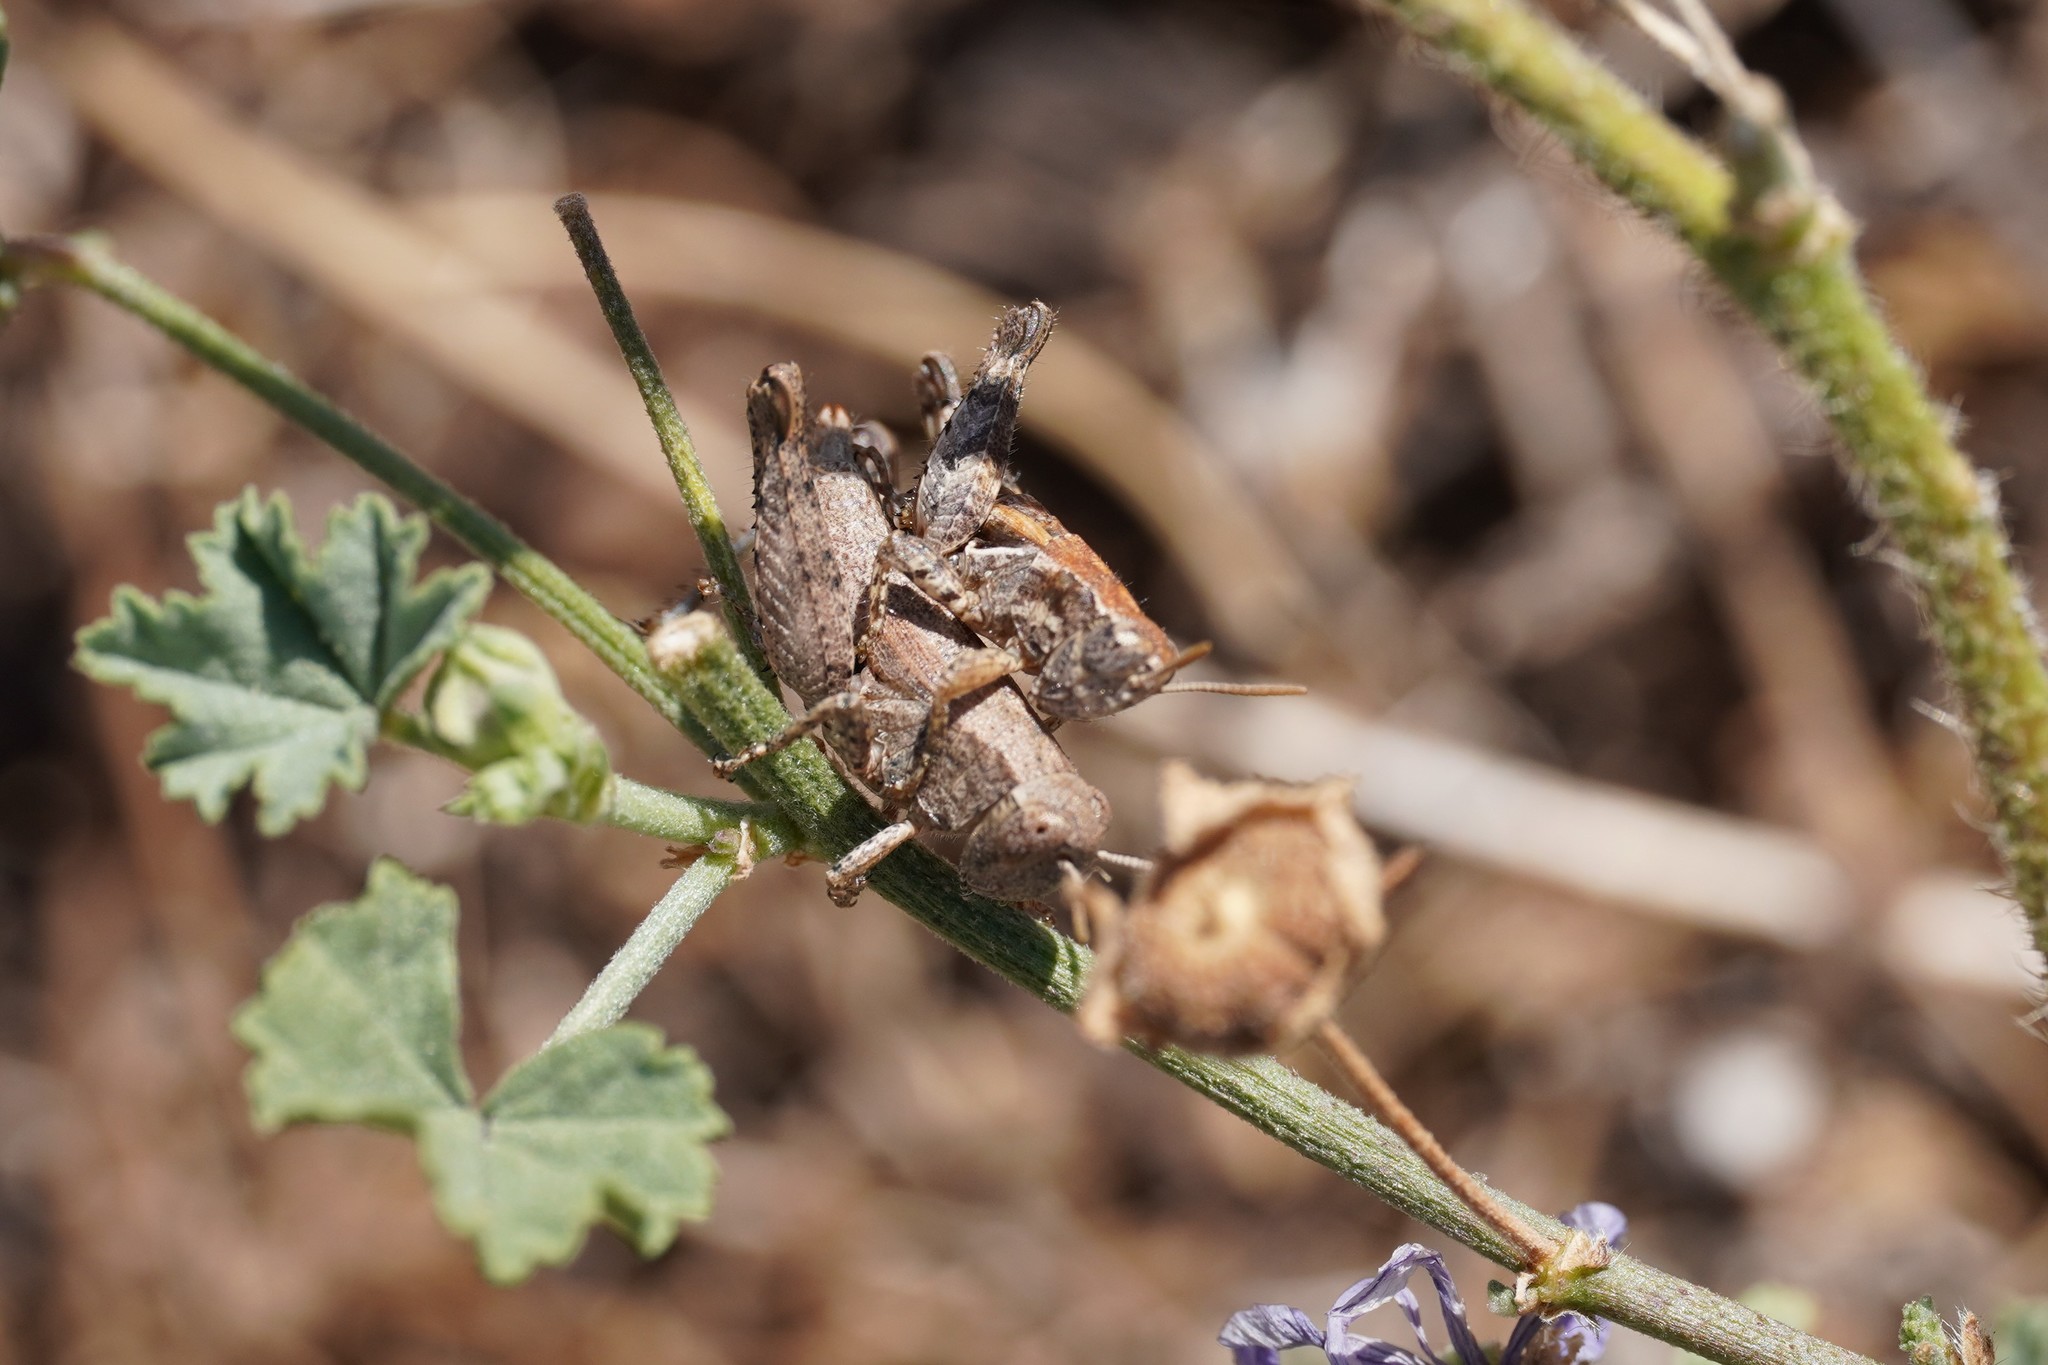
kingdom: Animalia
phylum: Arthropoda
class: Insecta
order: Orthoptera
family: Acrididae
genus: Pezotettix
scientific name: Pezotettix giornae
